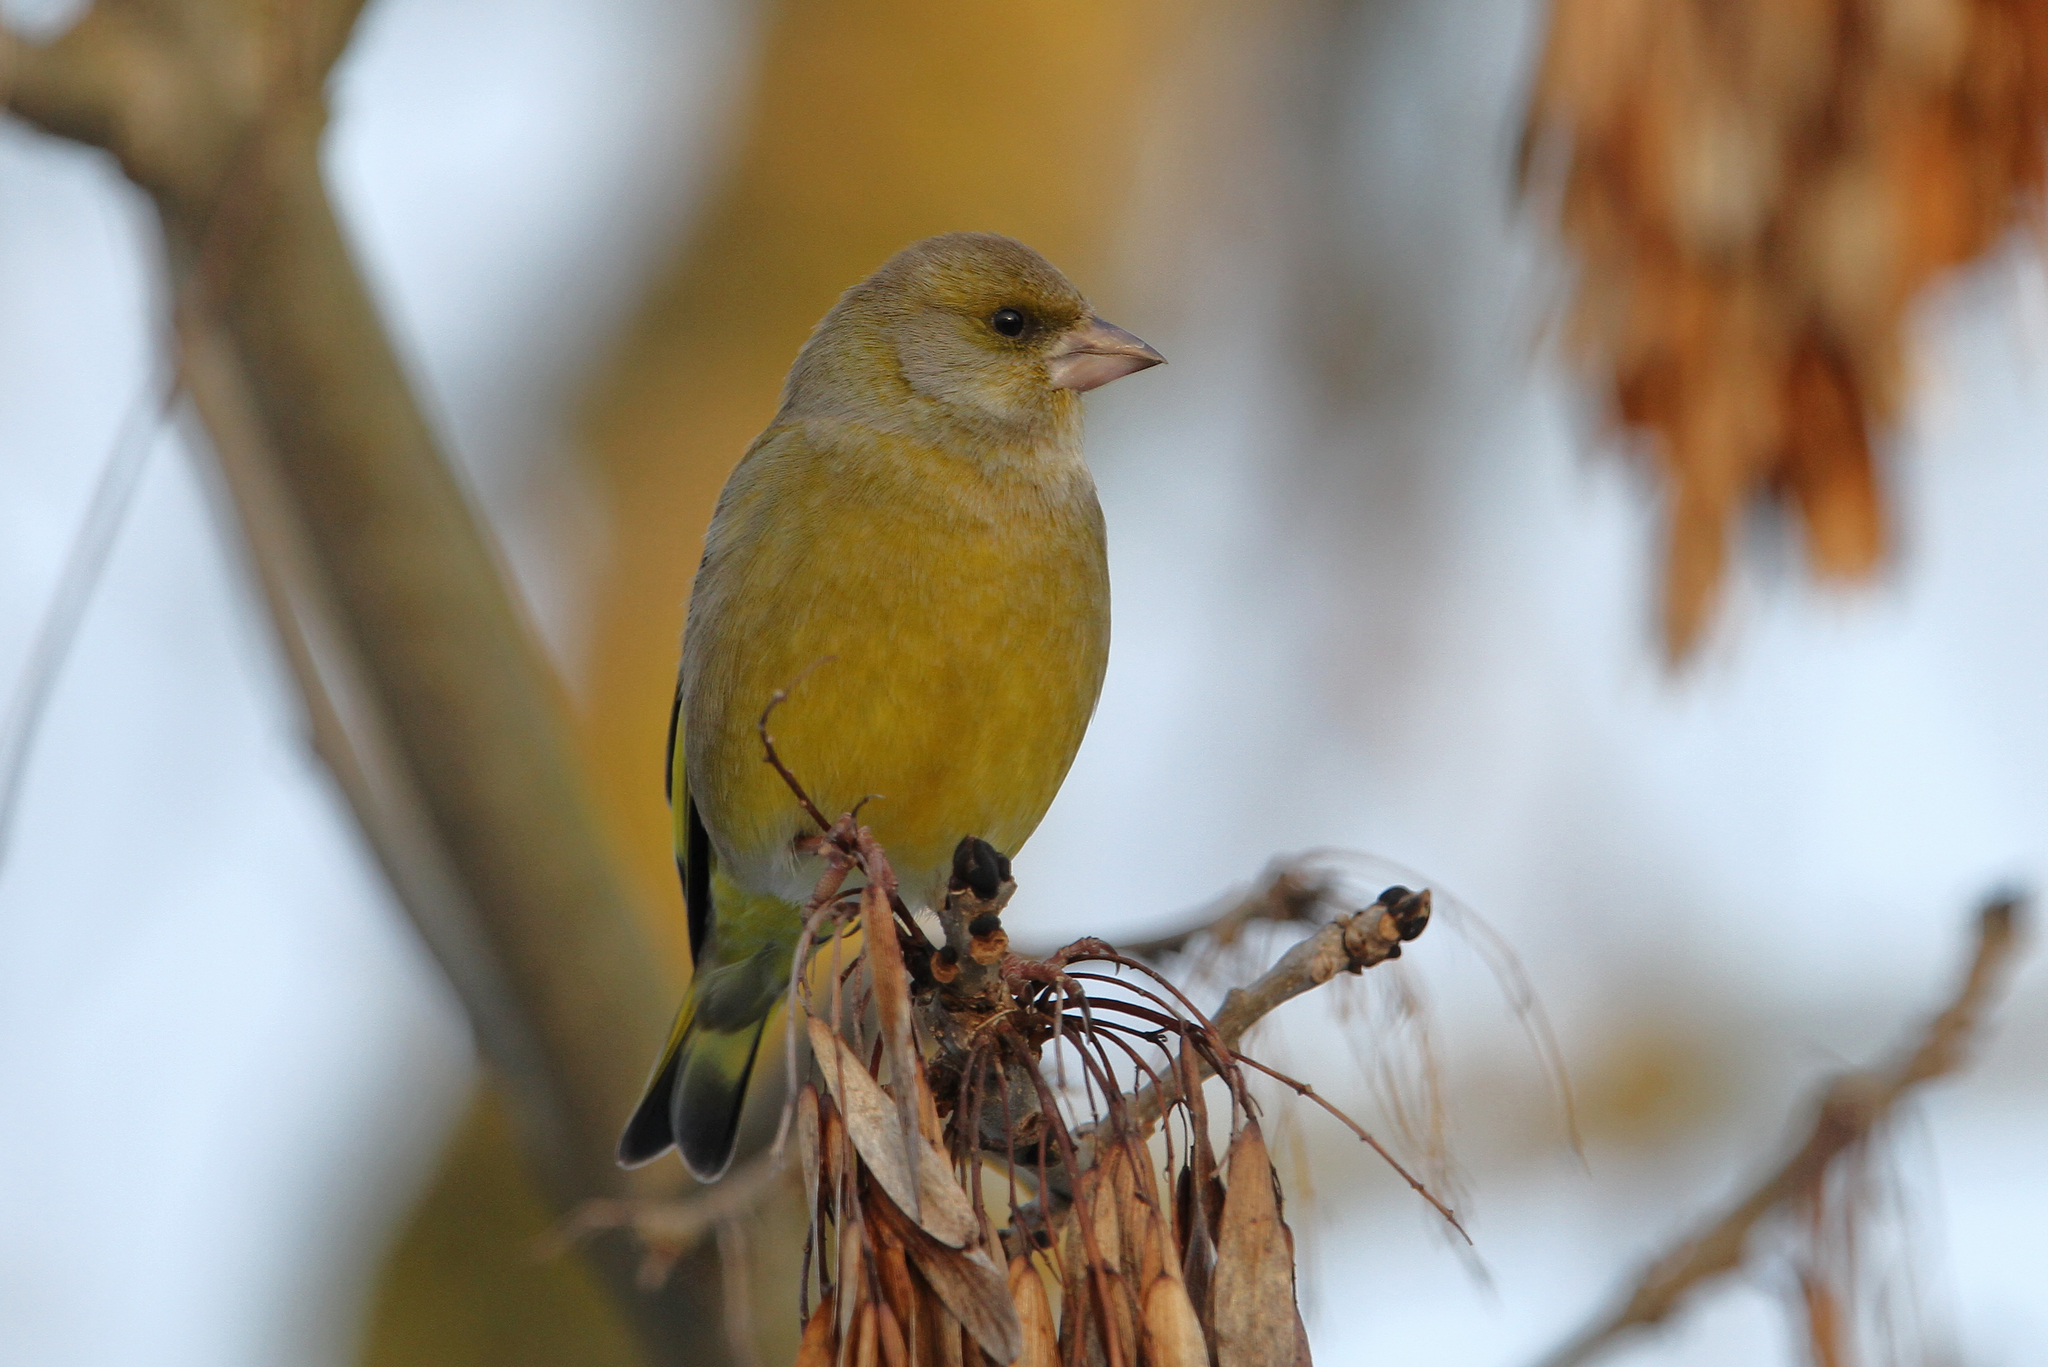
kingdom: Plantae
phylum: Tracheophyta
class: Liliopsida
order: Poales
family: Poaceae
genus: Chloris
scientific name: Chloris chloris
